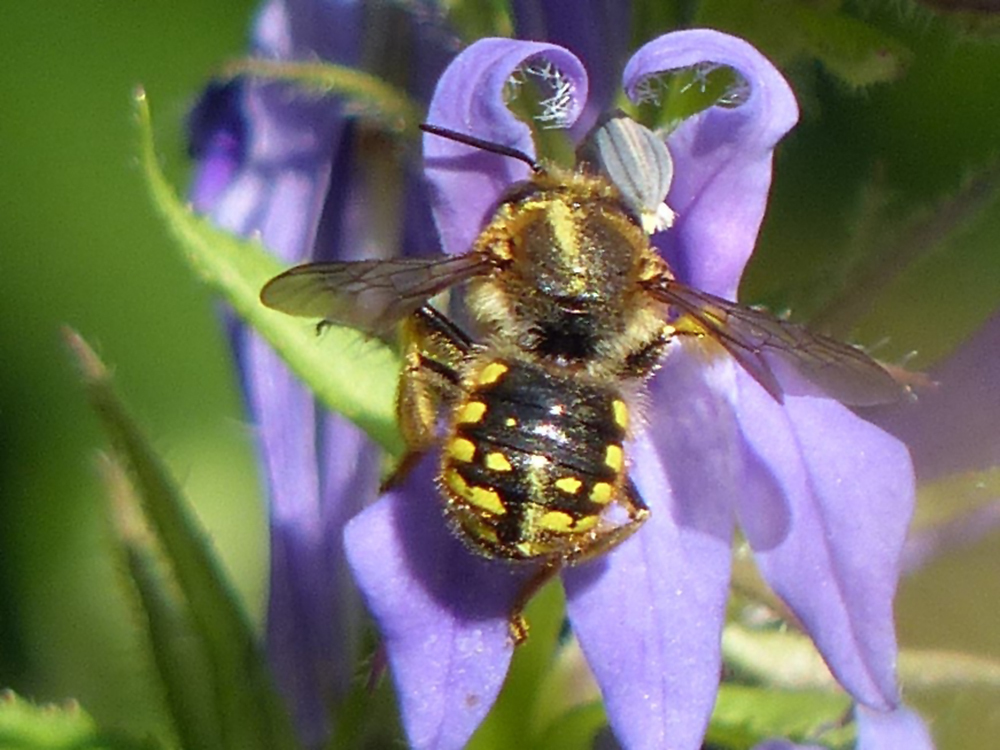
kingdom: Animalia
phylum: Arthropoda
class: Insecta
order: Hymenoptera
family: Megachilidae
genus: Anthidium
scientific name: Anthidium manicatum
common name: Wool carder bee
